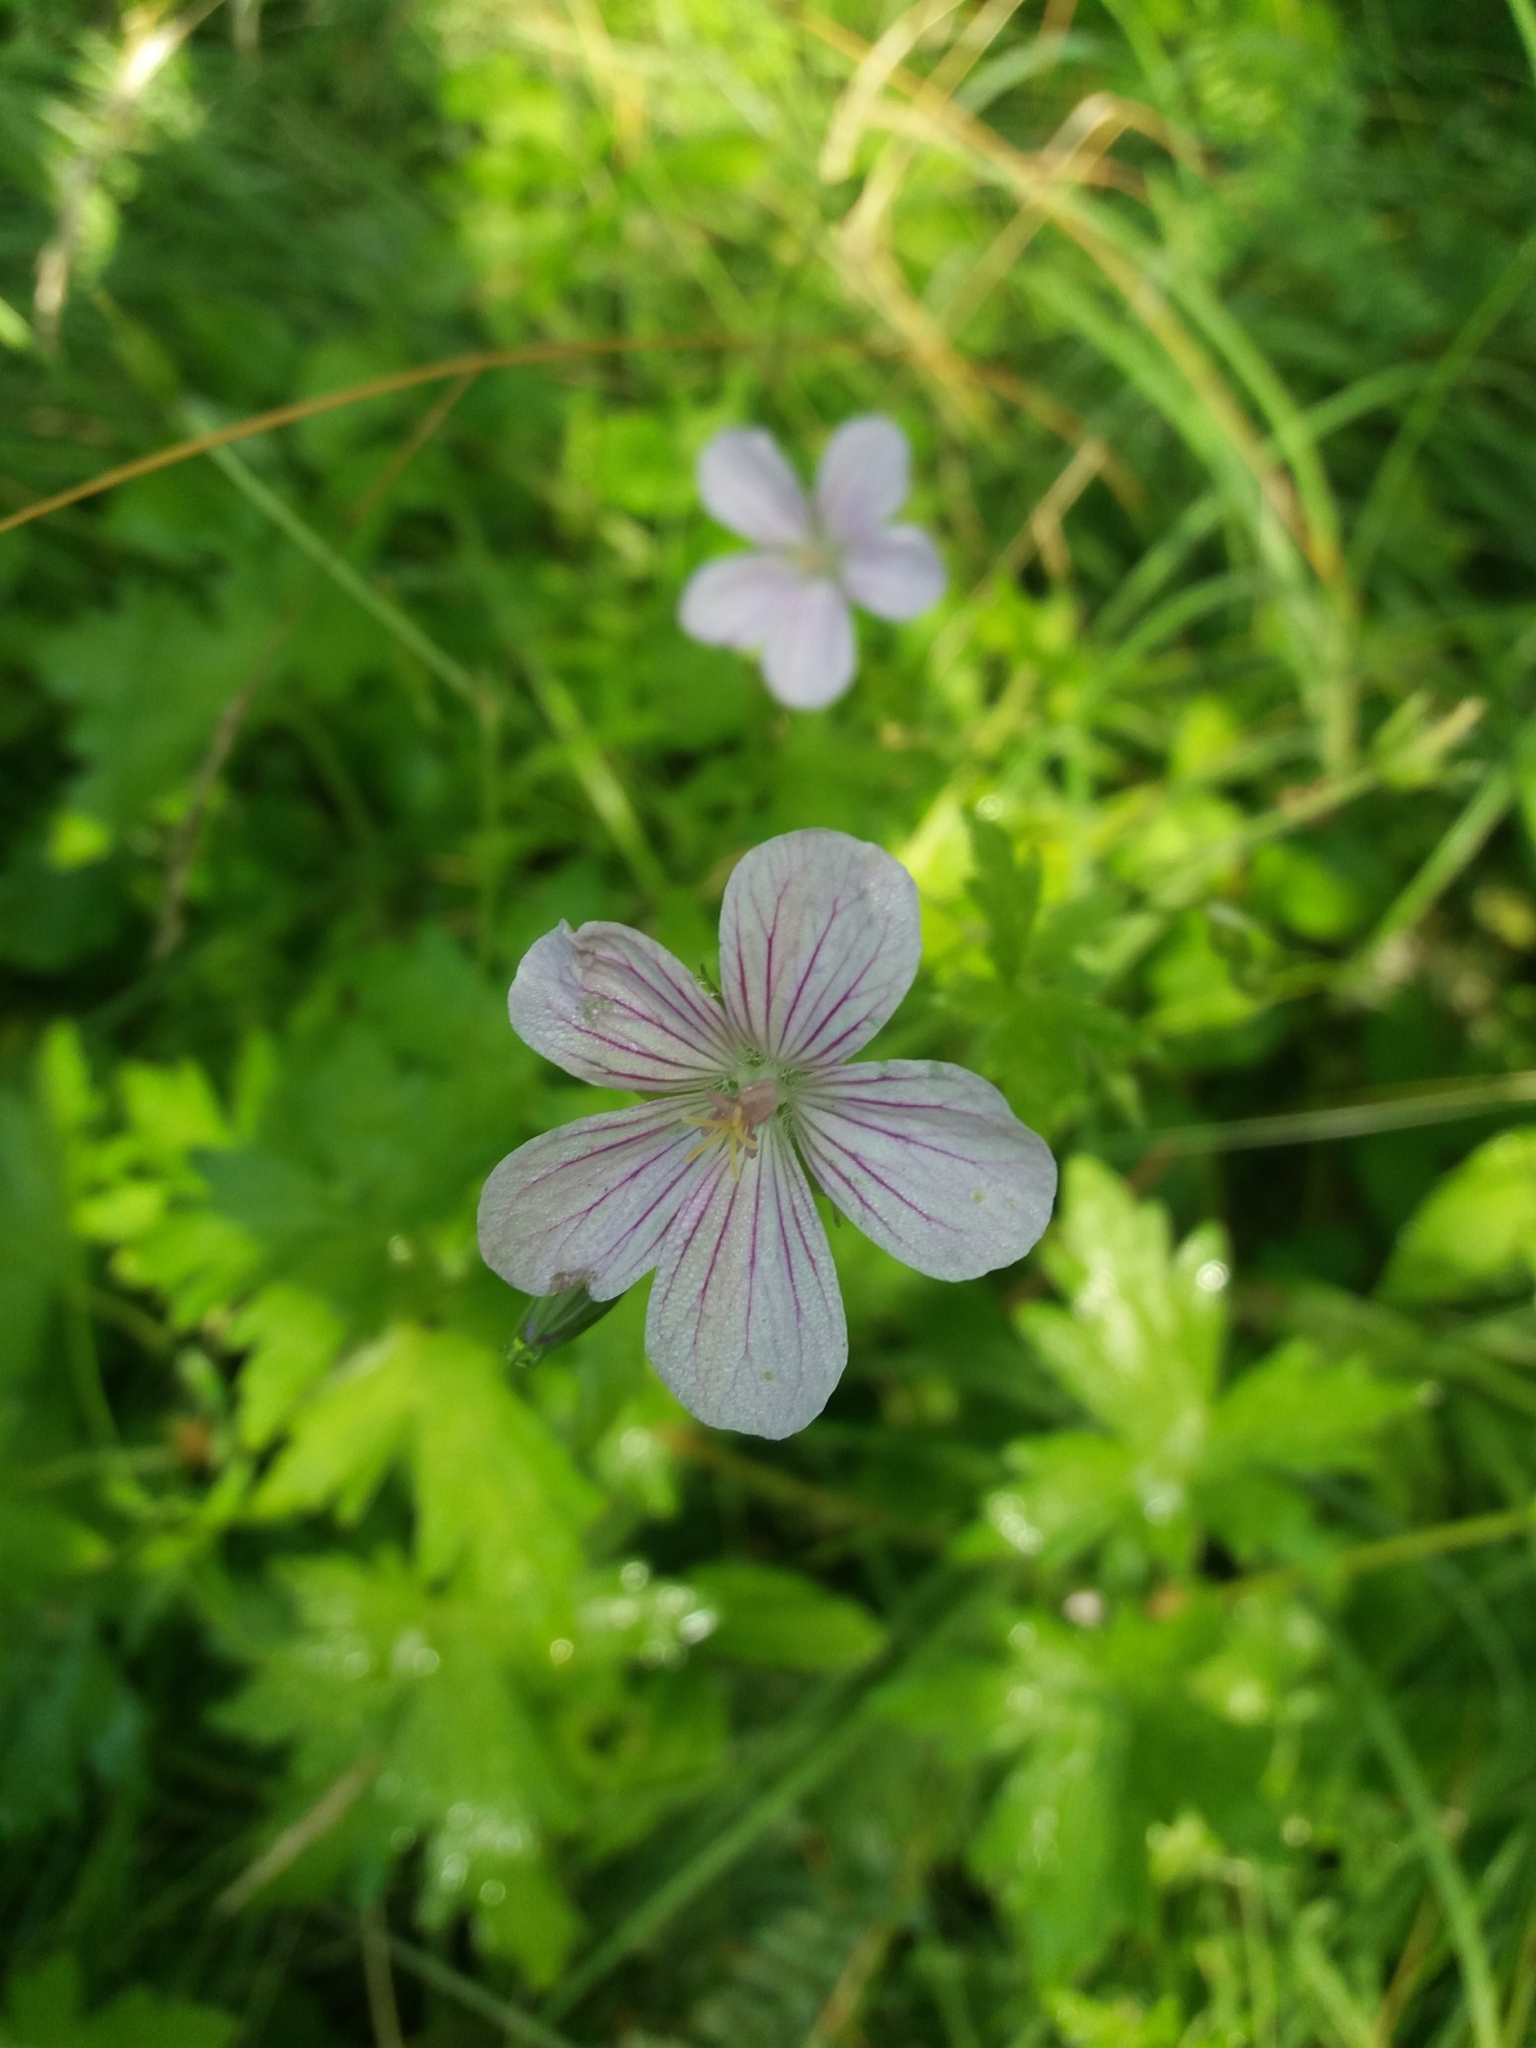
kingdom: Plantae
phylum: Tracheophyta
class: Magnoliopsida
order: Geraniales
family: Geraniaceae
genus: Geranium
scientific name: Geranium palustre
